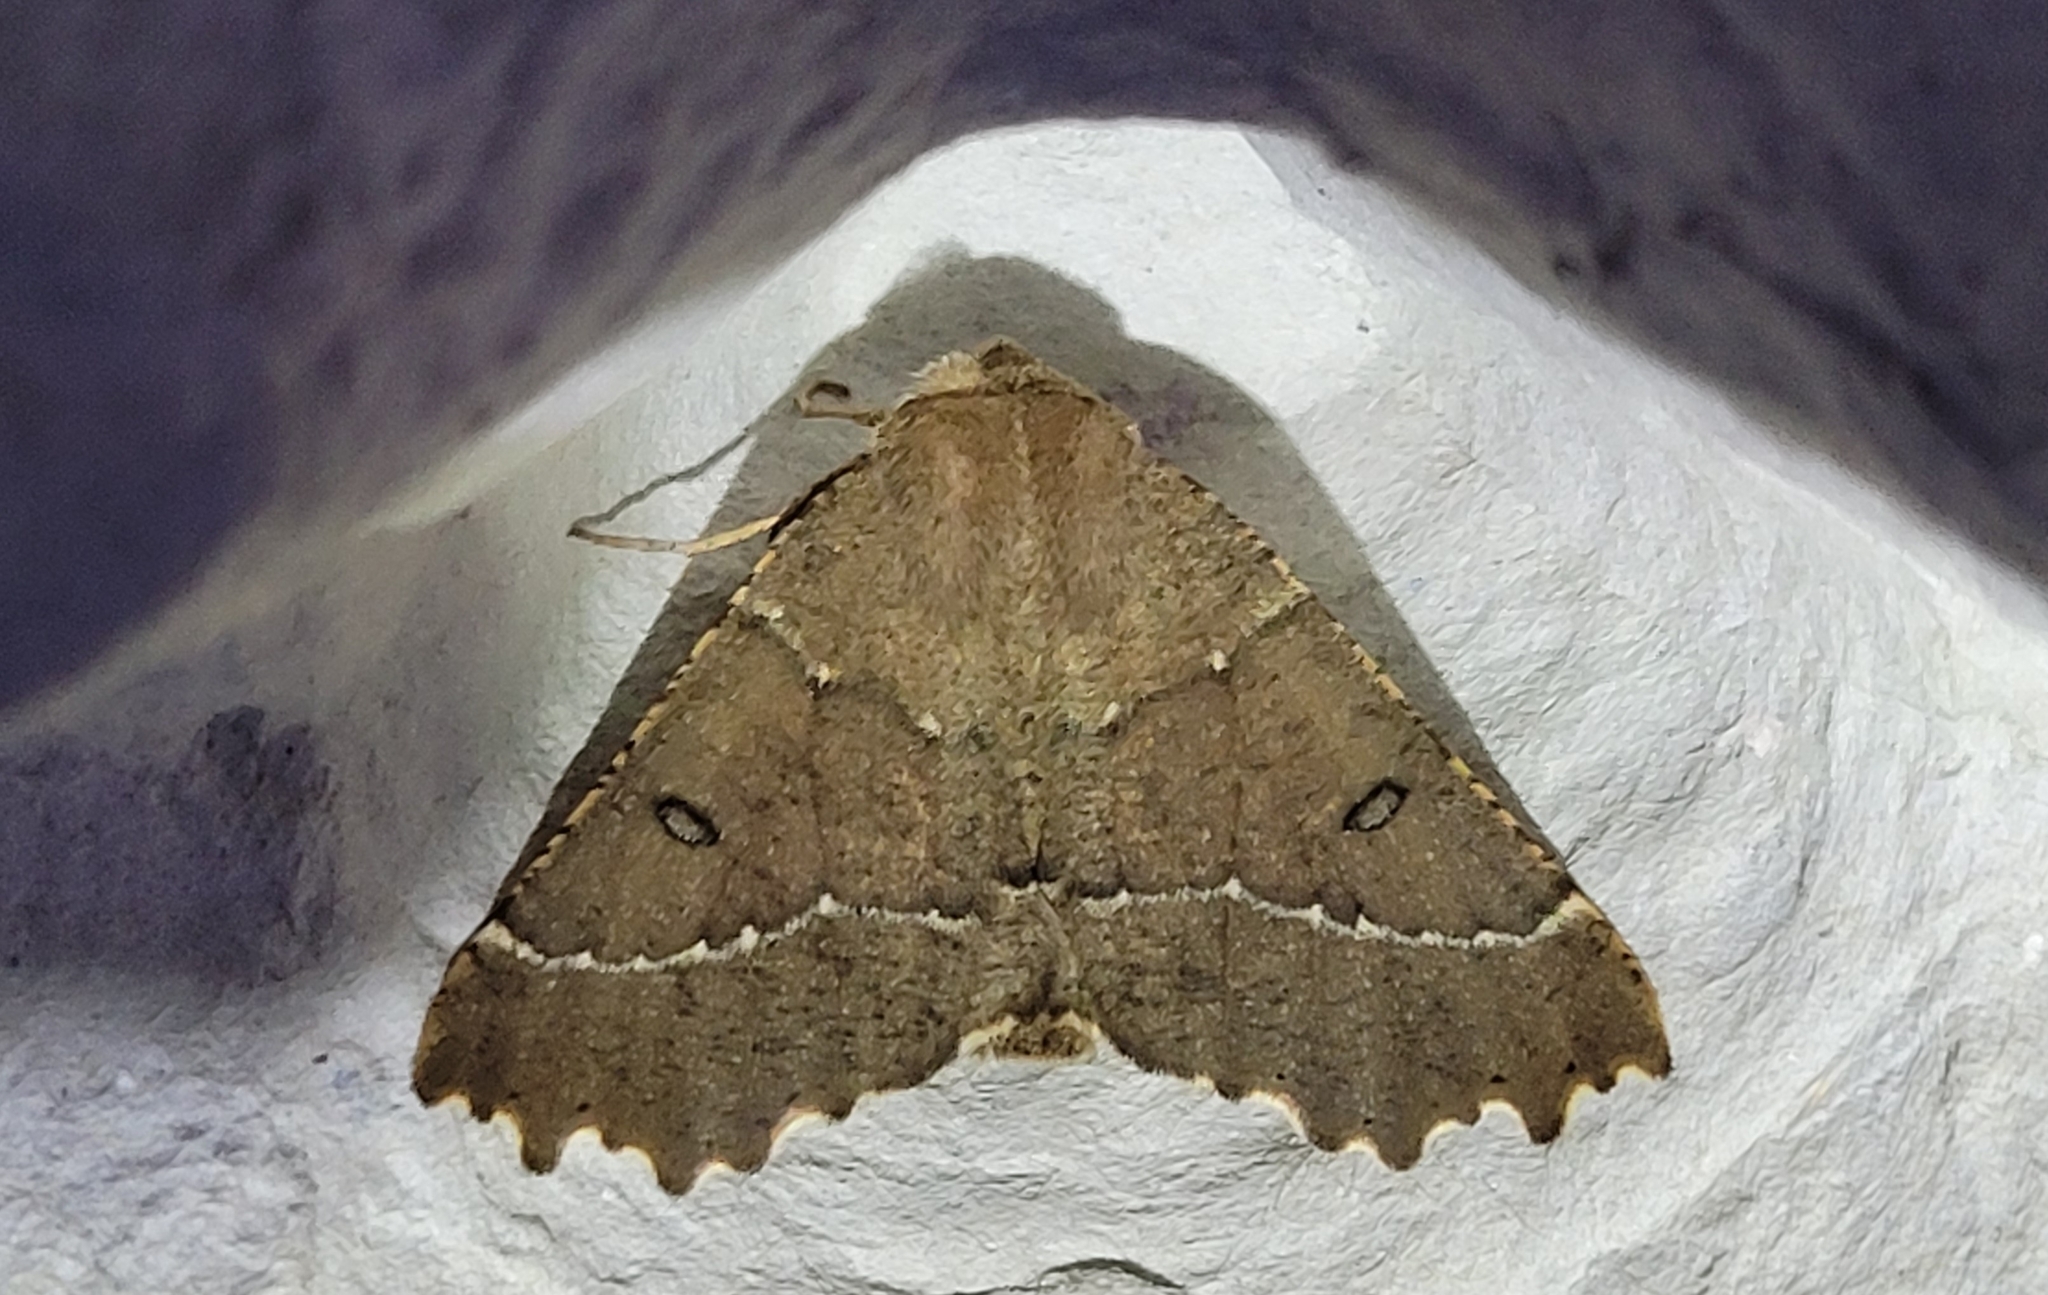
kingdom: Animalia
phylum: Arthropoda
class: Insecta
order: Lepidoptera
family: Geometridae
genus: Odontopera
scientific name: Odontopera bidentata
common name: Scalloped hazel
